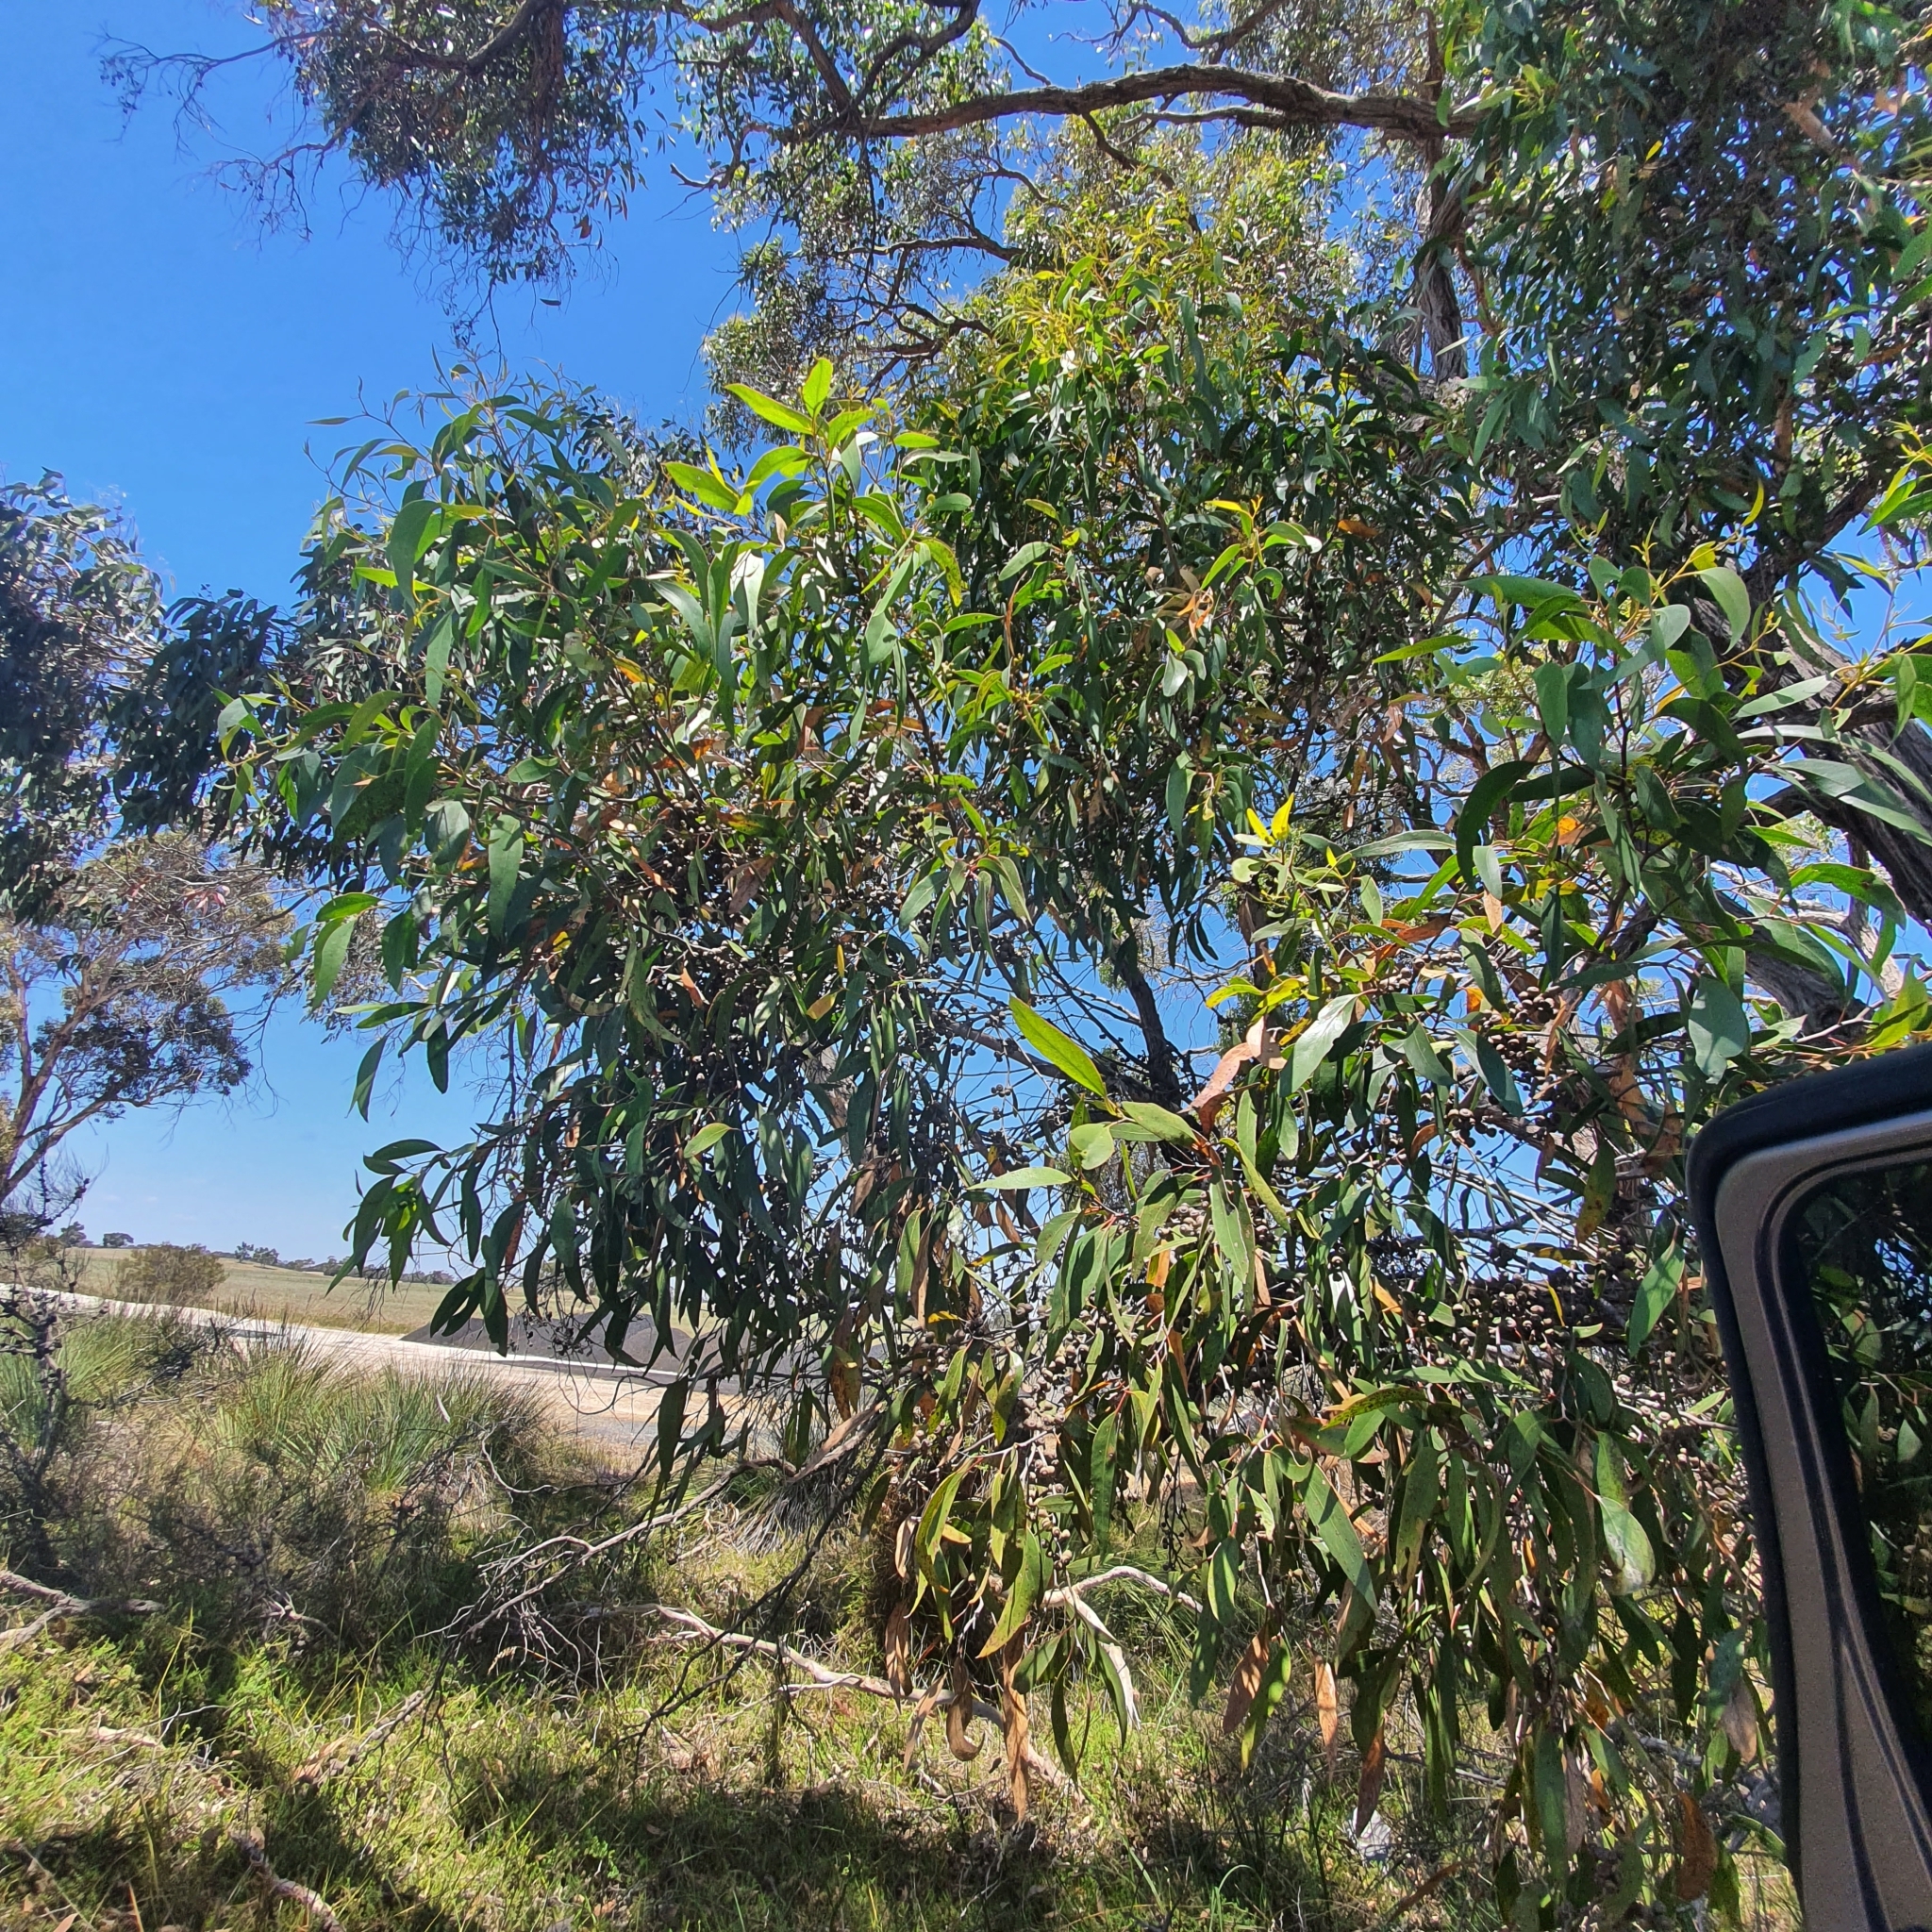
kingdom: Plantae
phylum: Tracheophyta
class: Magnoliopsida
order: Myrtales
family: Myrtaceae
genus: Eucalyptus
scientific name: Eucalyptus arenacea
